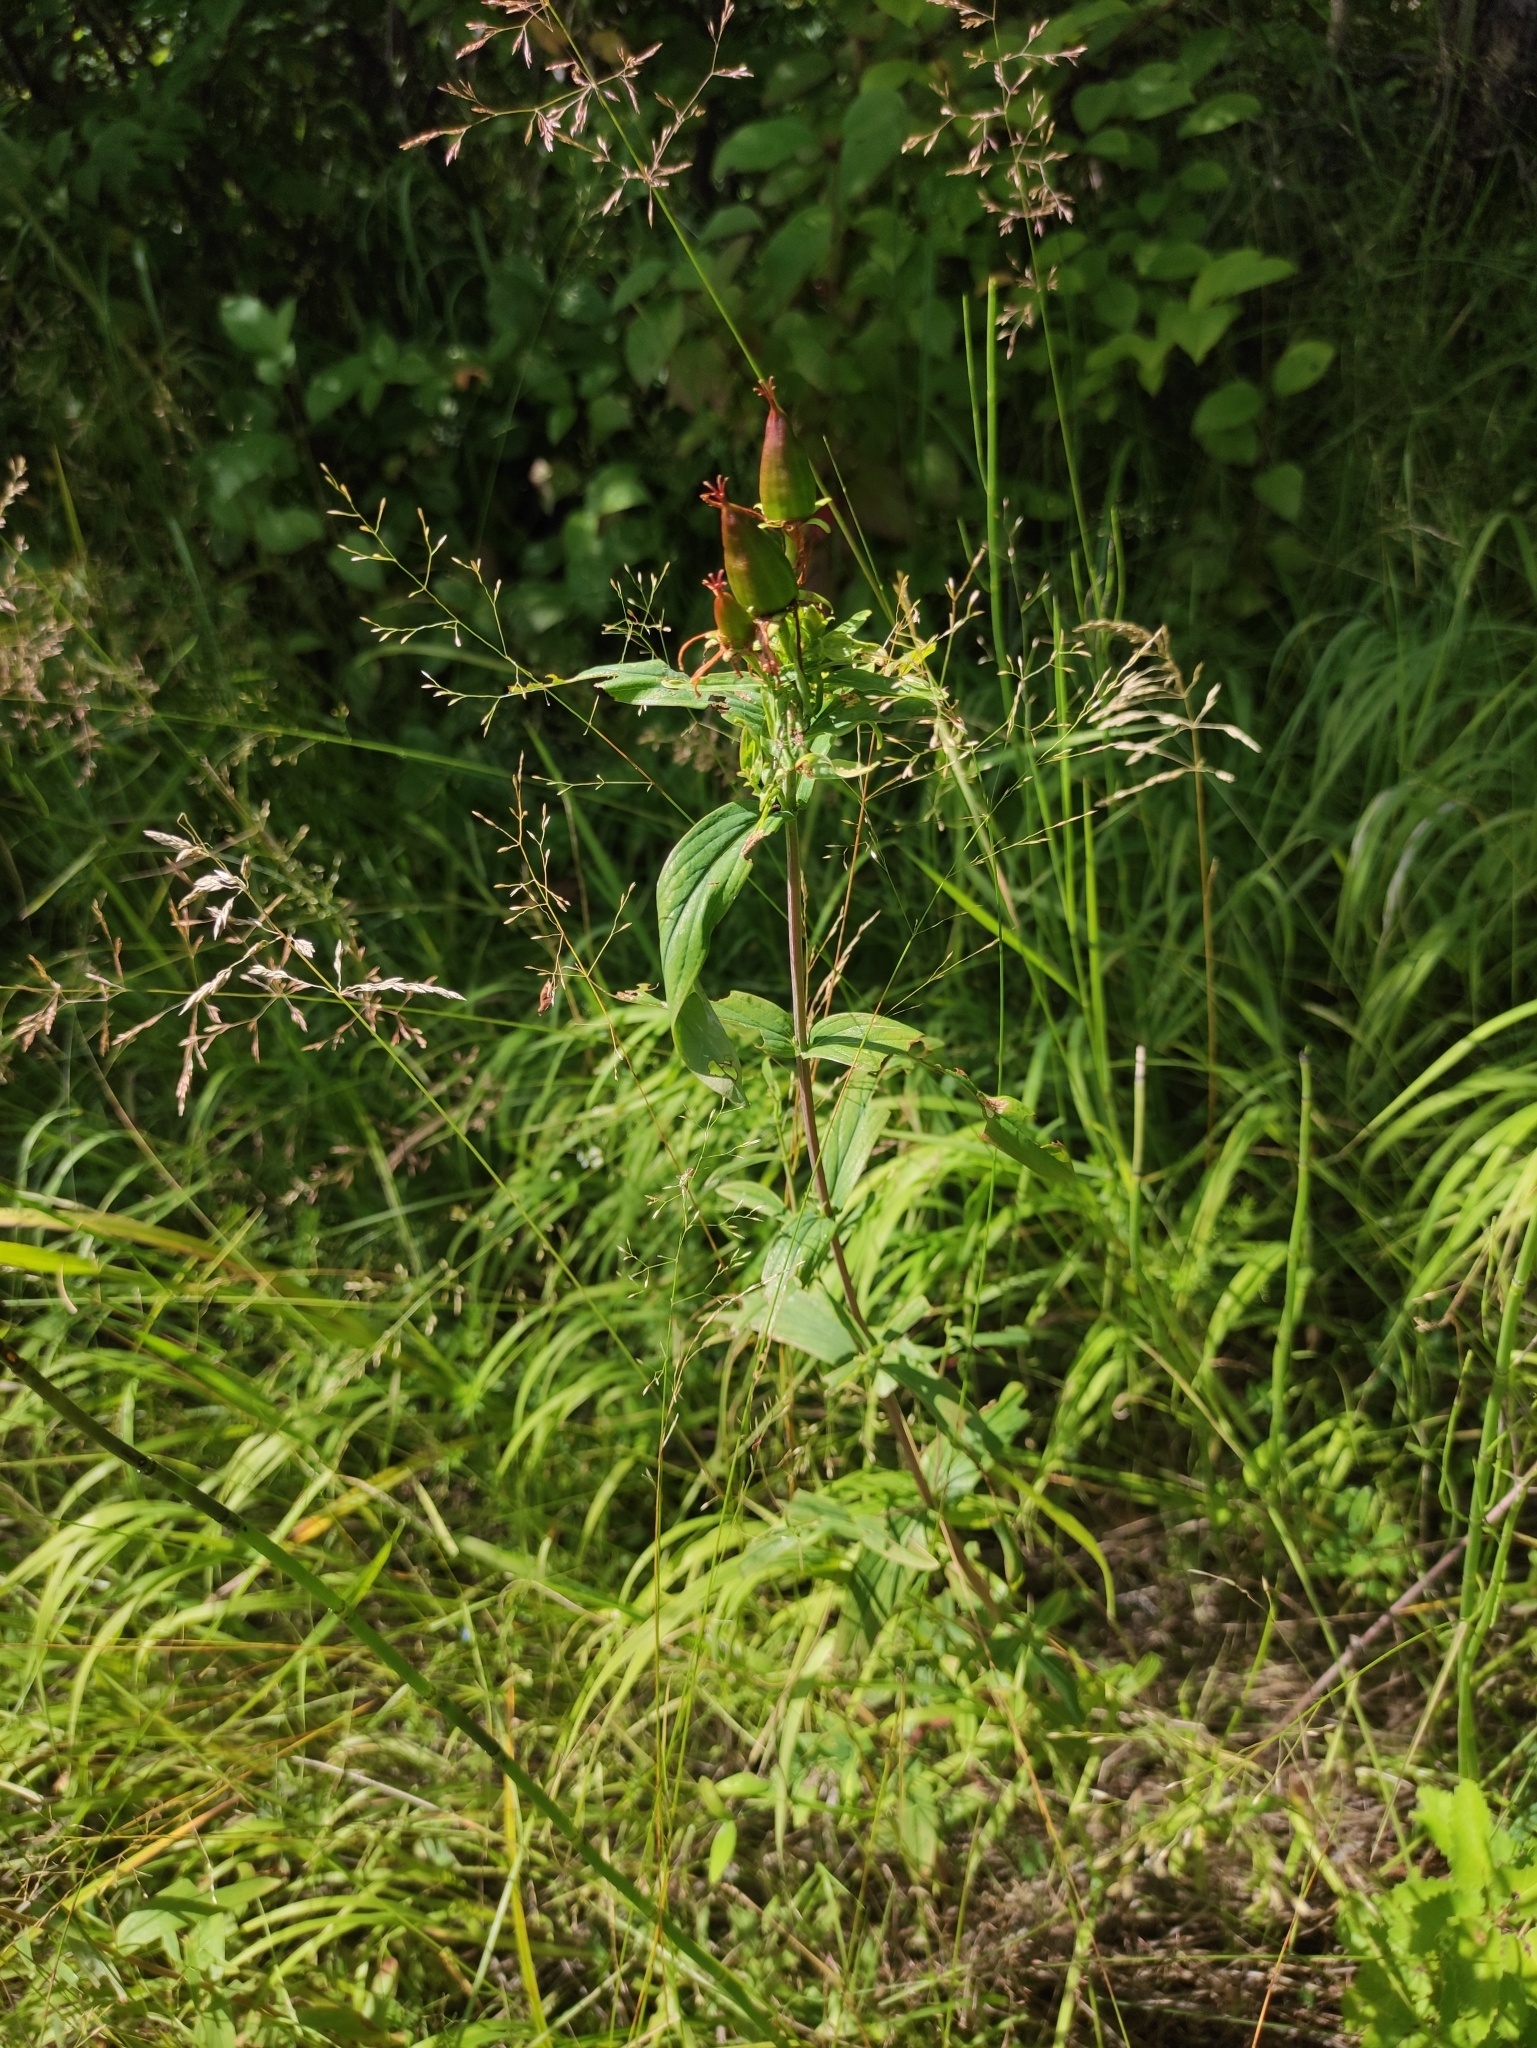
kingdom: Plantae
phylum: Tracheophyta
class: Magnoliopsida
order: Malpighiales
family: Hypericaceae
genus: Hypericum
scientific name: Hypericum ascyron
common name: Giant st. john's-wort
